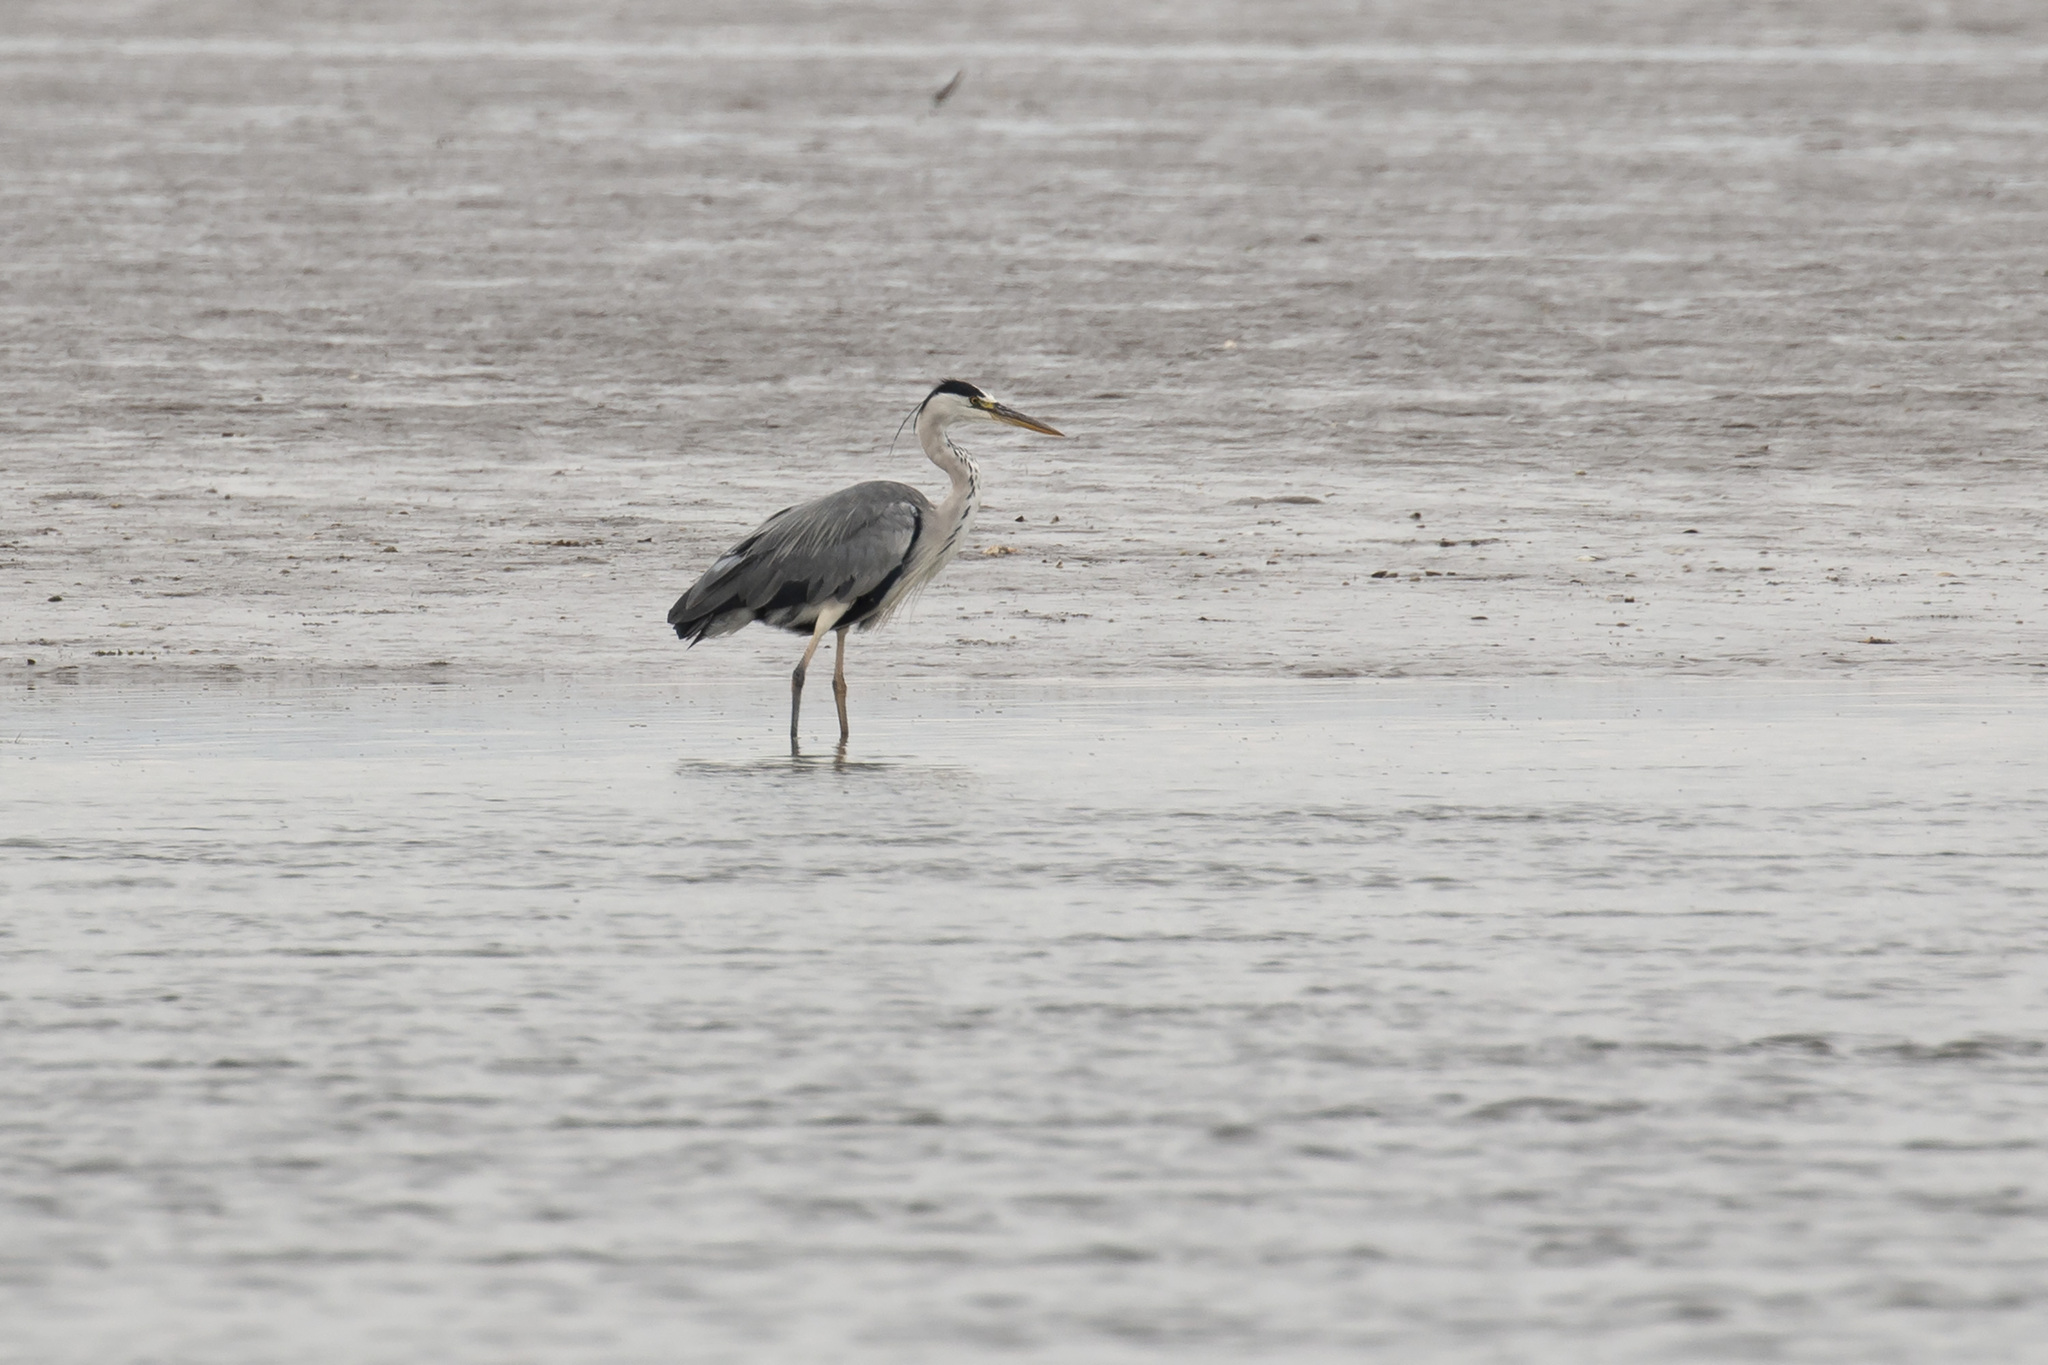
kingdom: Animalia
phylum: Chordata
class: Aves
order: Pelecaniformes
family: Ardeidae
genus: Ardea
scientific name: Ardea cinerea
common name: Grey heron
